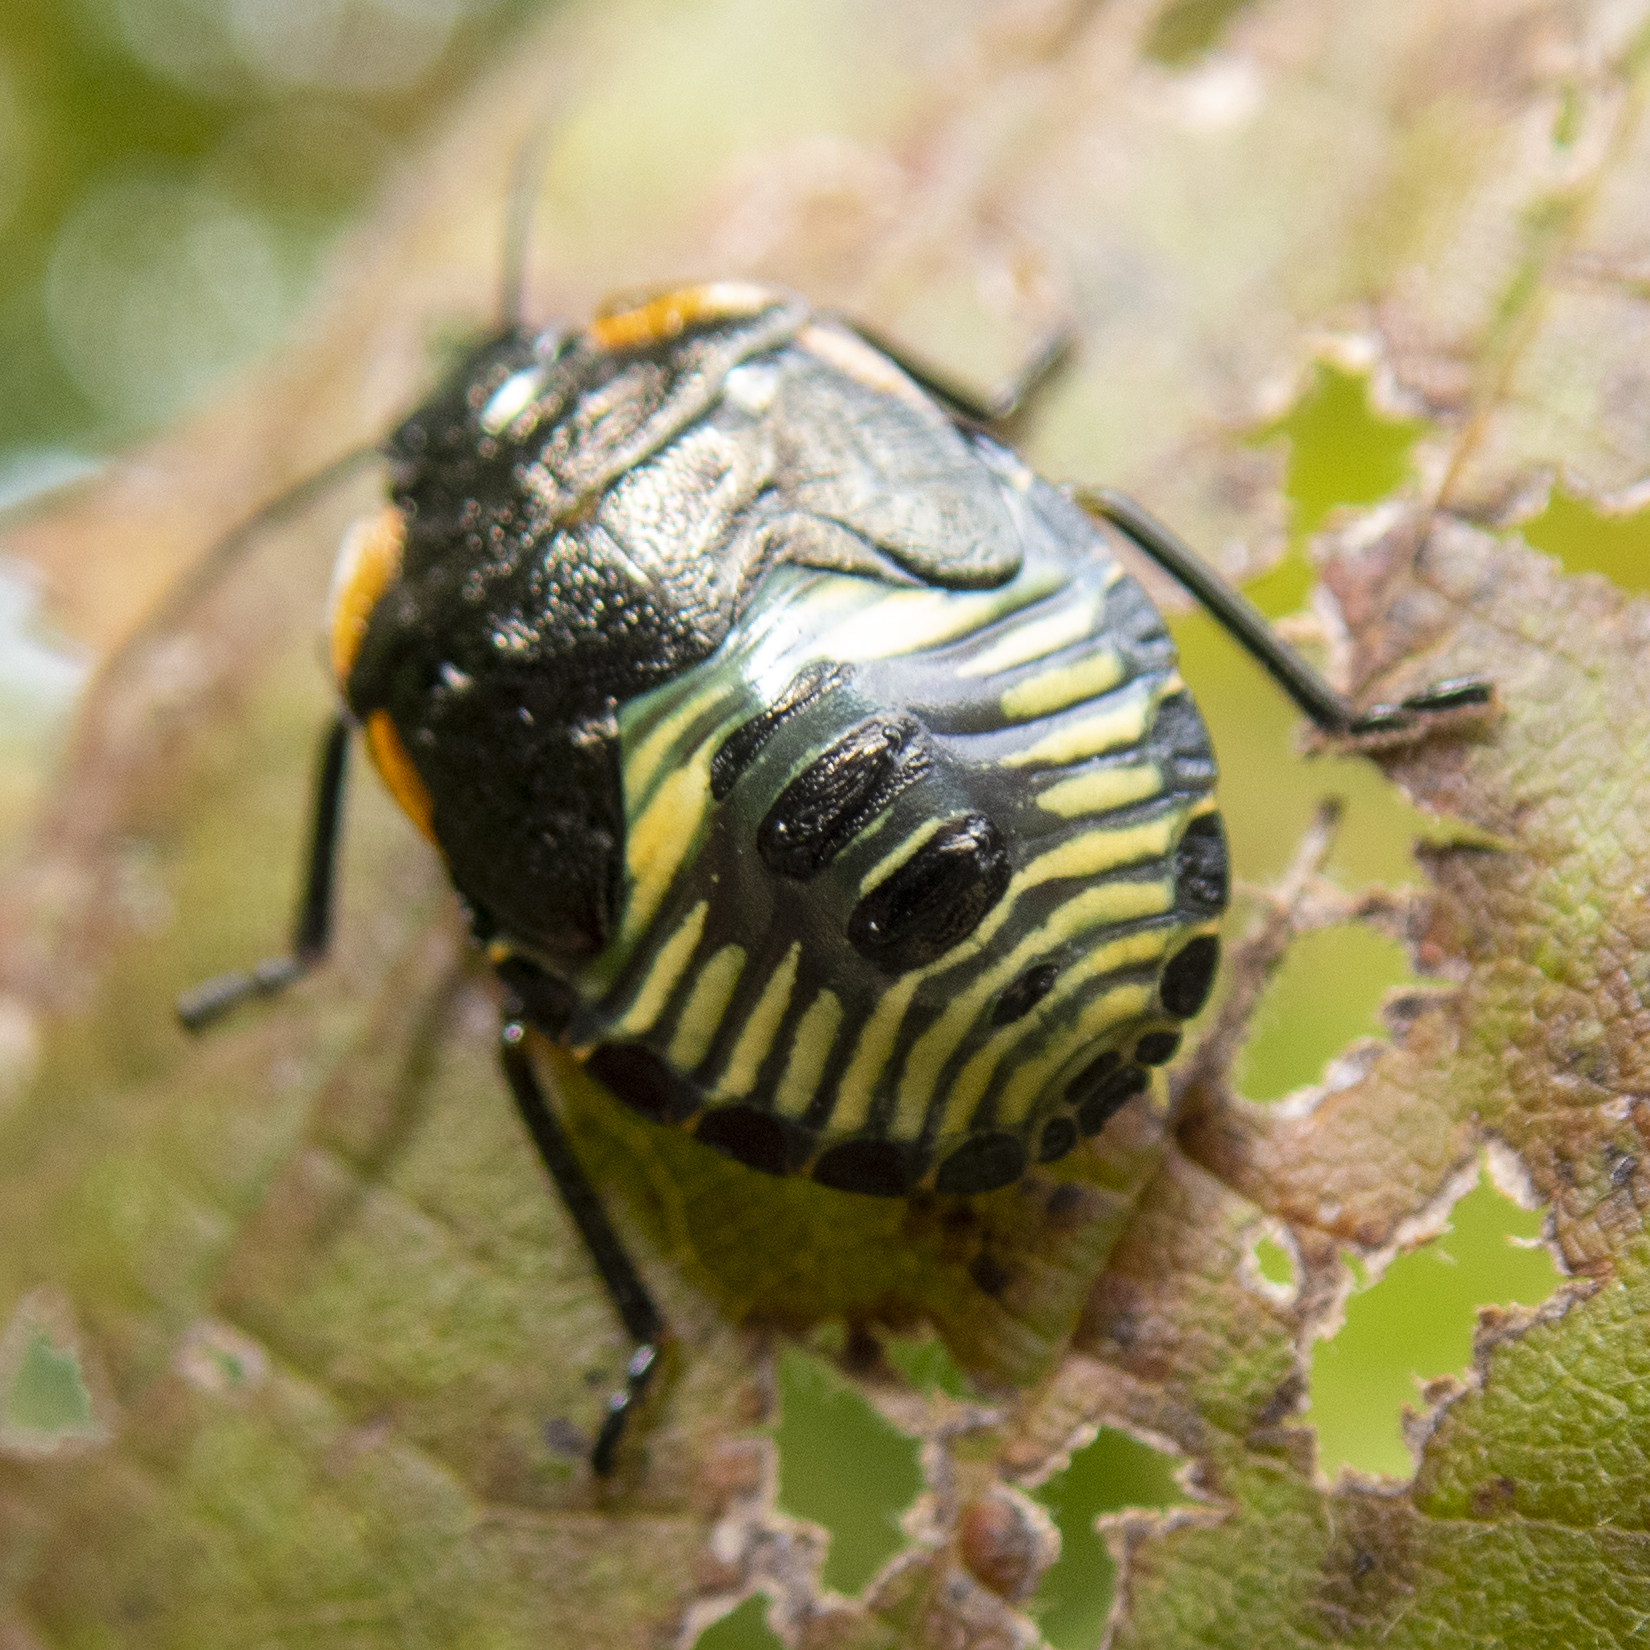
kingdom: Animalia
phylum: Arthropoda
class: Insecta
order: Hemiptera
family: Pentatomidae
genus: Chinavia
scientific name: Chinavia hilaris
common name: Green stink bug
